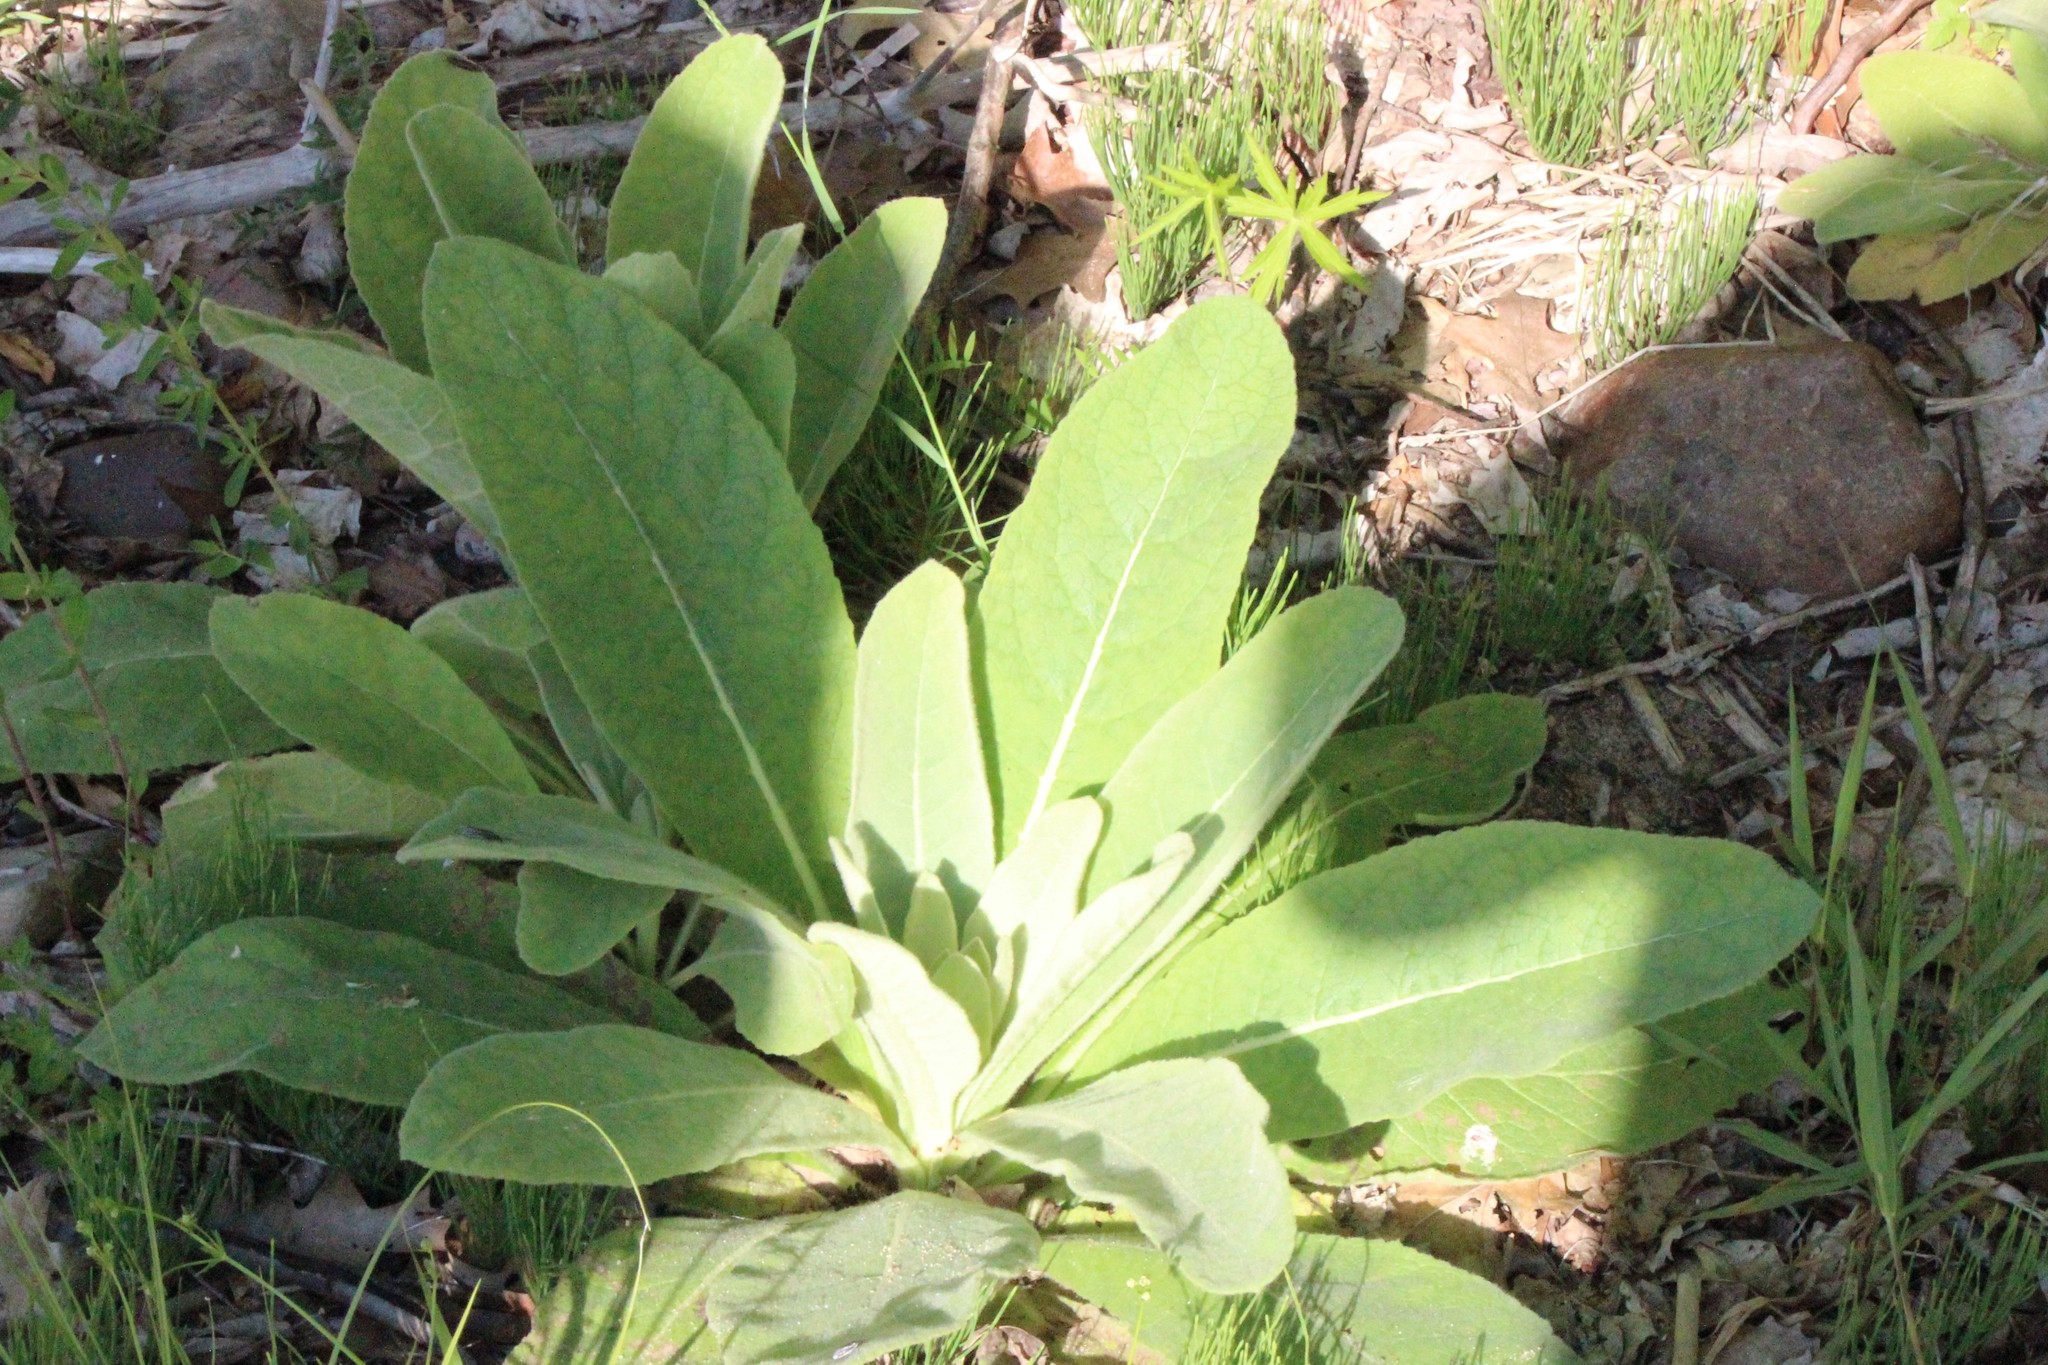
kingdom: Plantae
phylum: Tracheophyta
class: Magnoliopsida
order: Lamiales
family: Scrophulariaceae
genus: Verbascum
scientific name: Verbascum thapsus
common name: Common mullein
